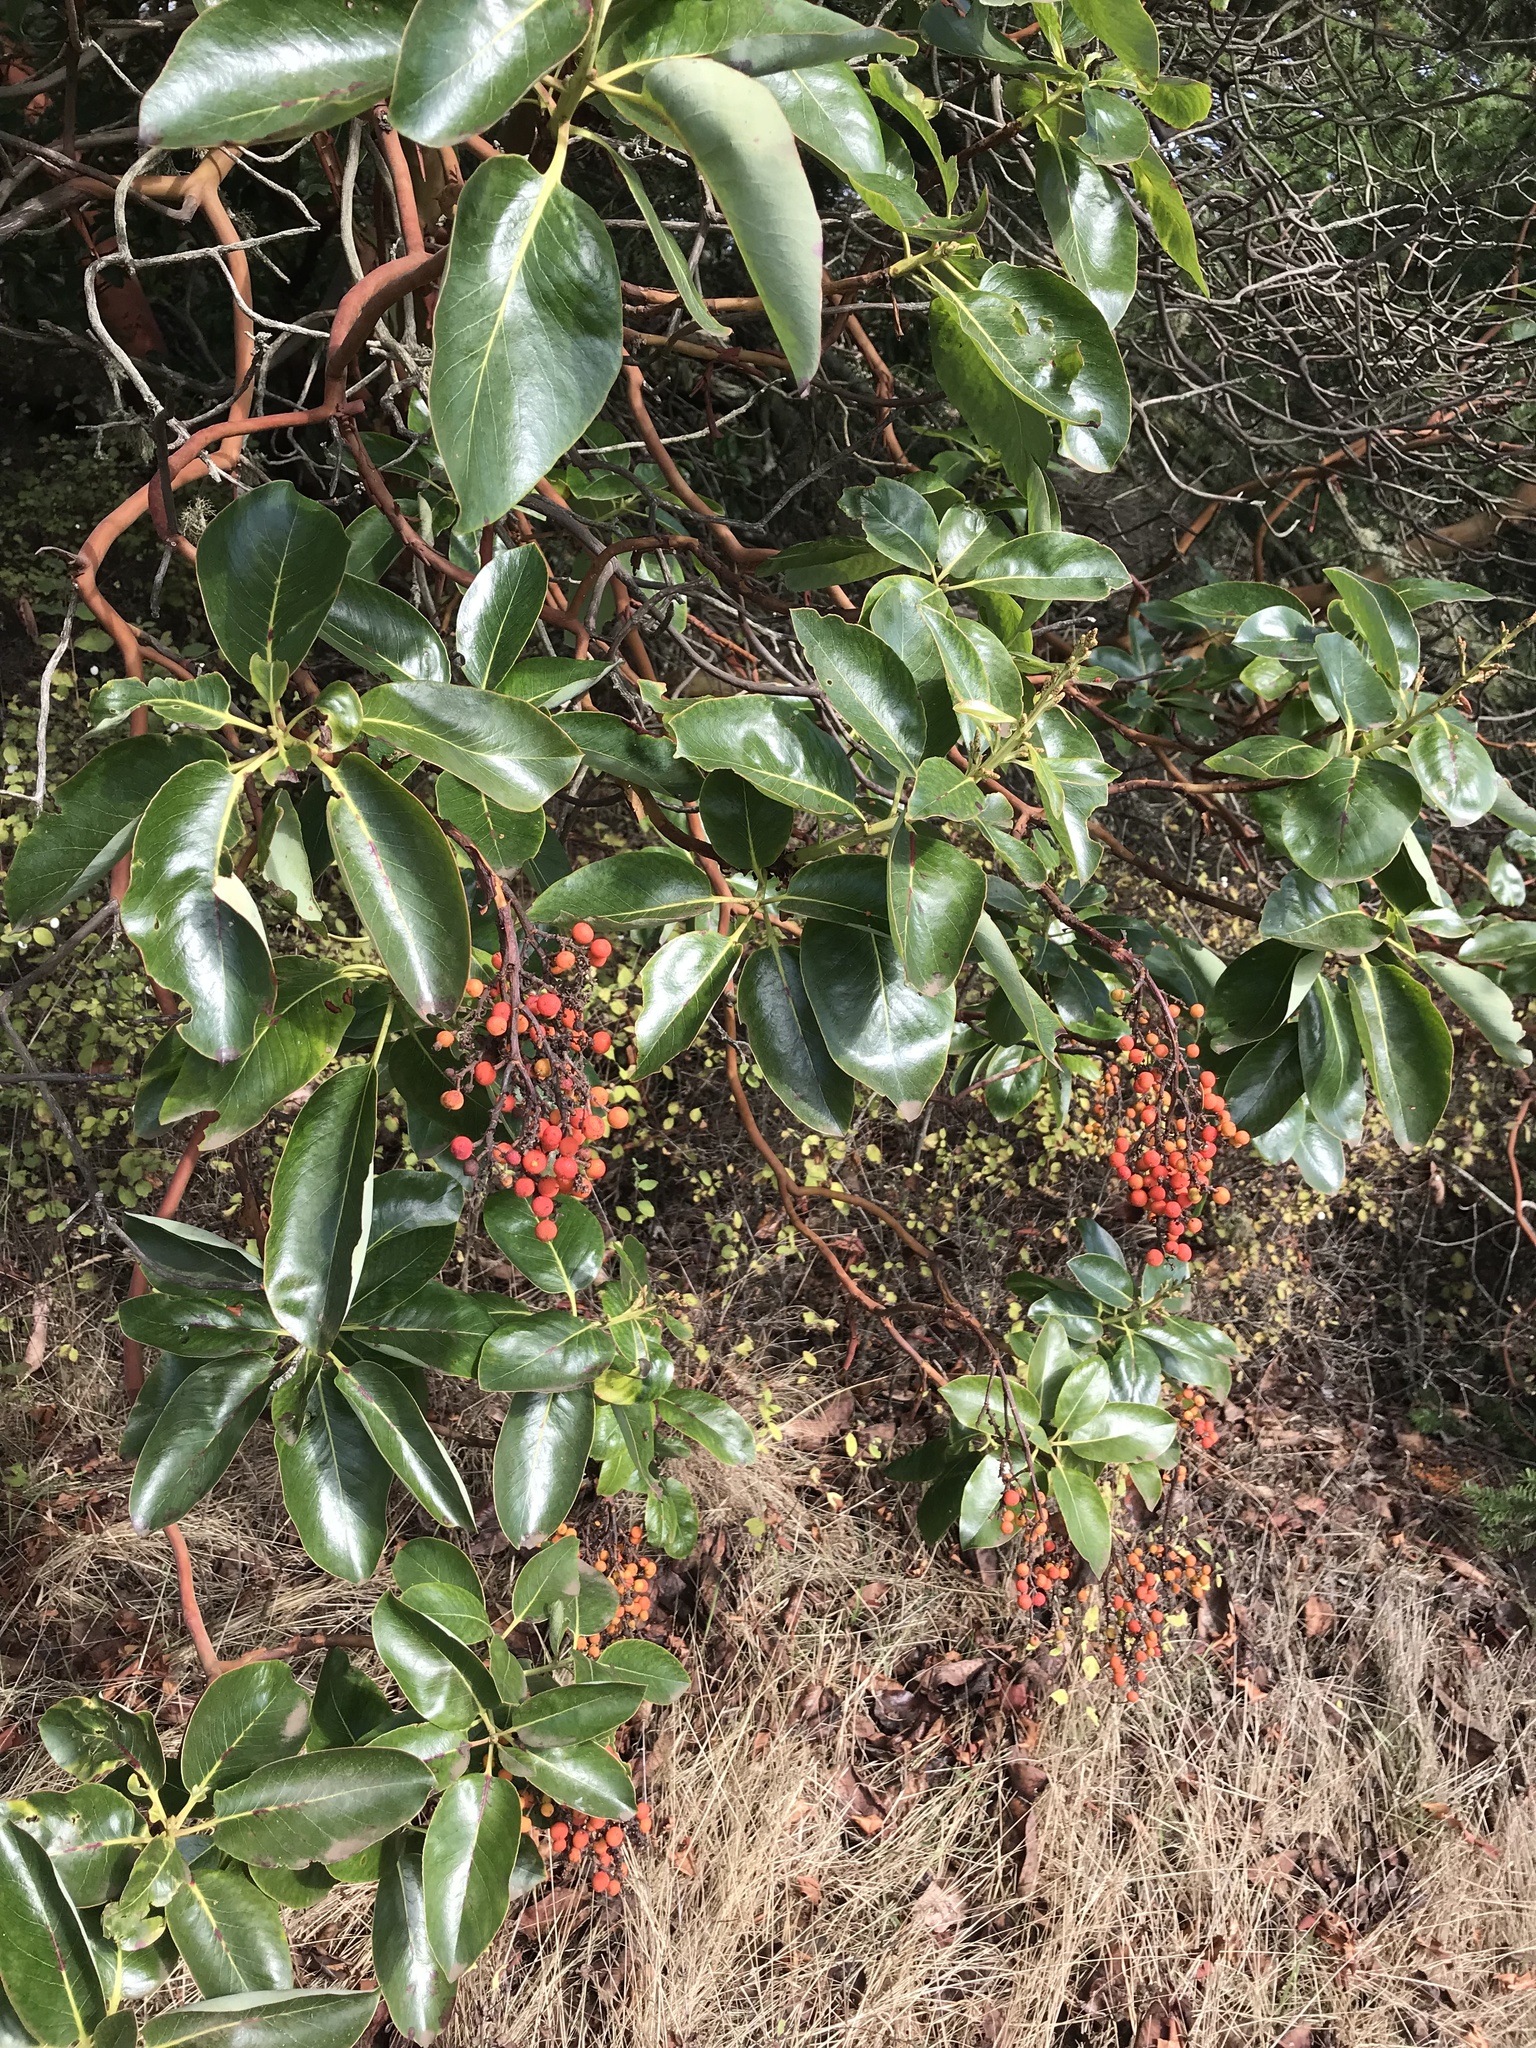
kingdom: Plantae
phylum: Tracheophyta
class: Magnoliopsida
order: Ericales
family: Ericaceae
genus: Arbutus
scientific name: Arbutus menziesii
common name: Pacific madrone
